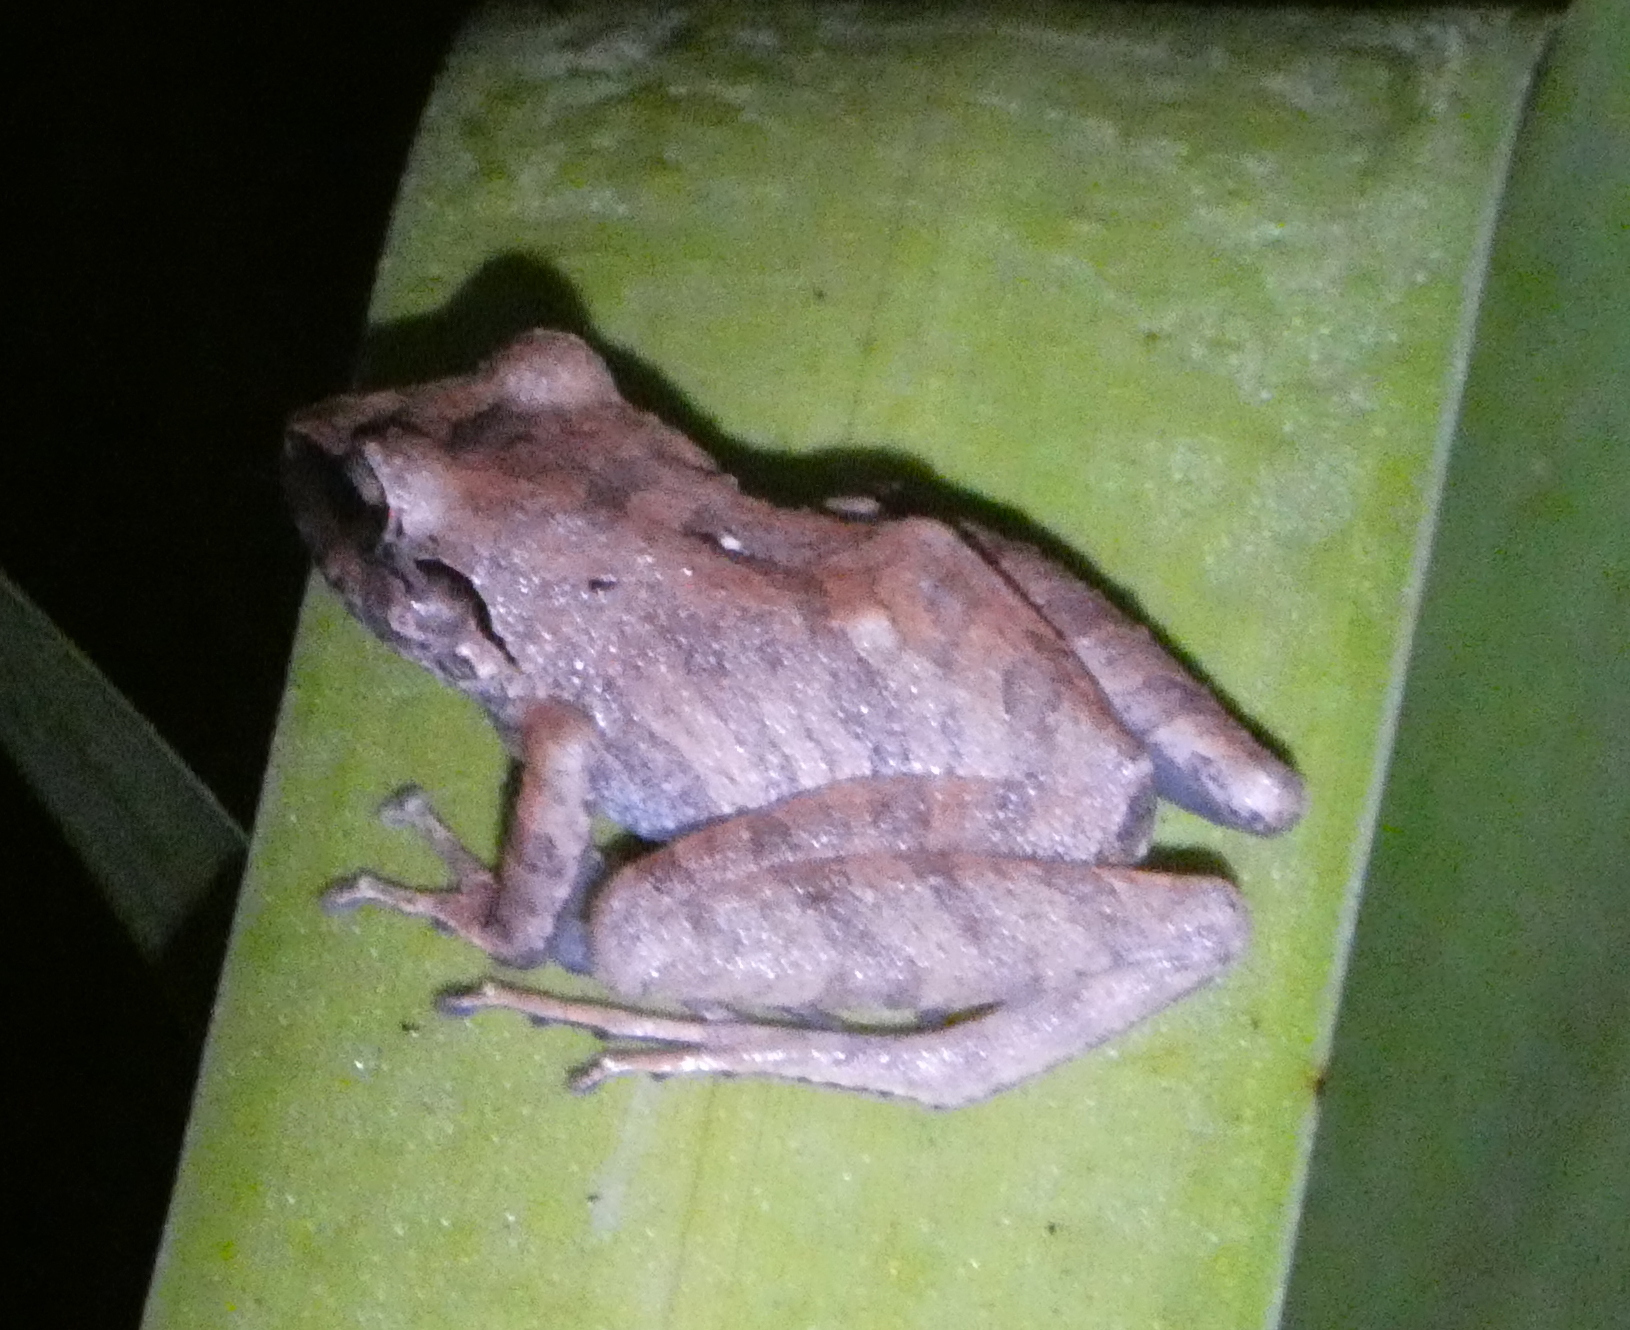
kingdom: Animalia
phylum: Chordata
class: Amphibia
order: Anura
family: Craugastoridae
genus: Pristimantis
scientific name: Pristimantis ramagii
